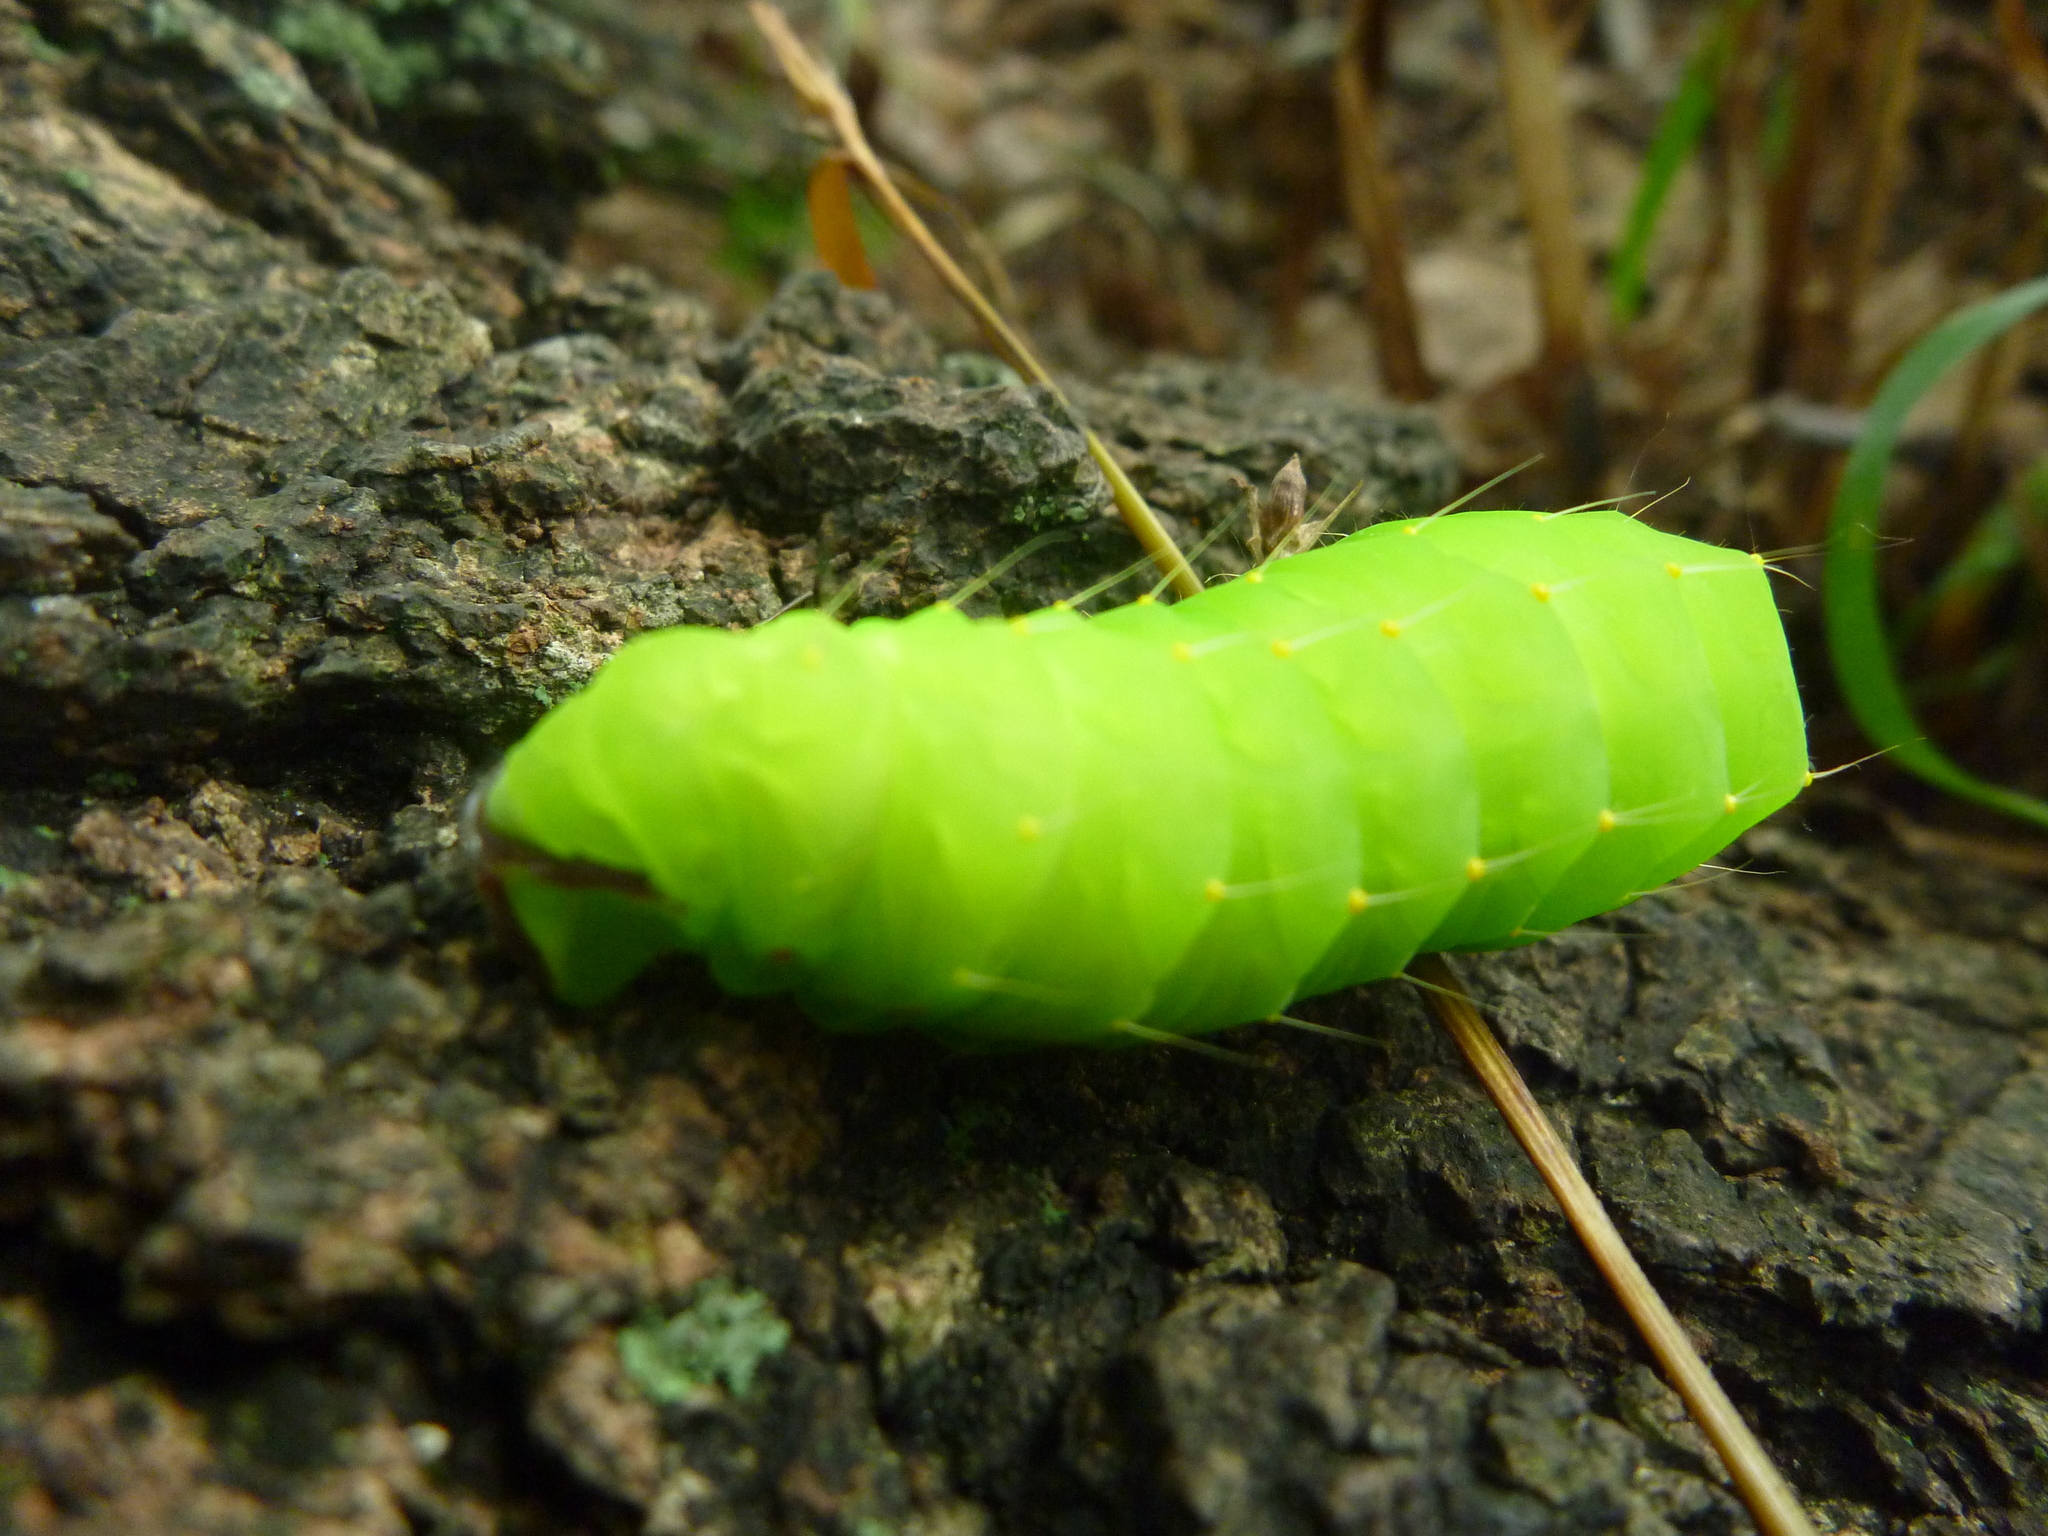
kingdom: Animalia
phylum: Arthropoda
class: Insecta
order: Lepidoptera
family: Saturniidae
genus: Antheraea
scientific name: Antheraea polyphemus
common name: Polyphemus moth
